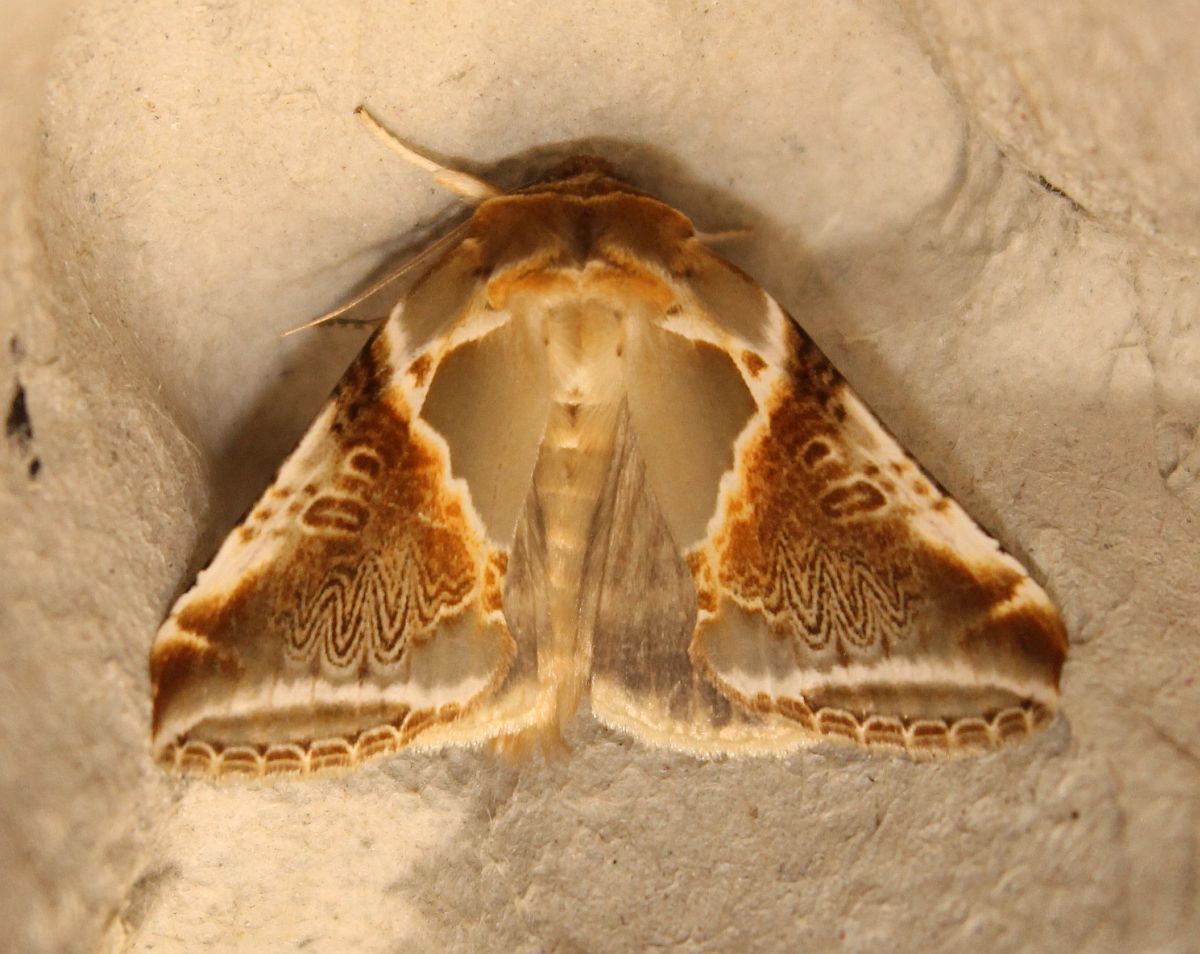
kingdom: Animalia
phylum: Arthropoda
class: Insecta
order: Lepidoptera
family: Drepanidae
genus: Habrosyne
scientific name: Habrosyne pyritoides
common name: Buff arches
